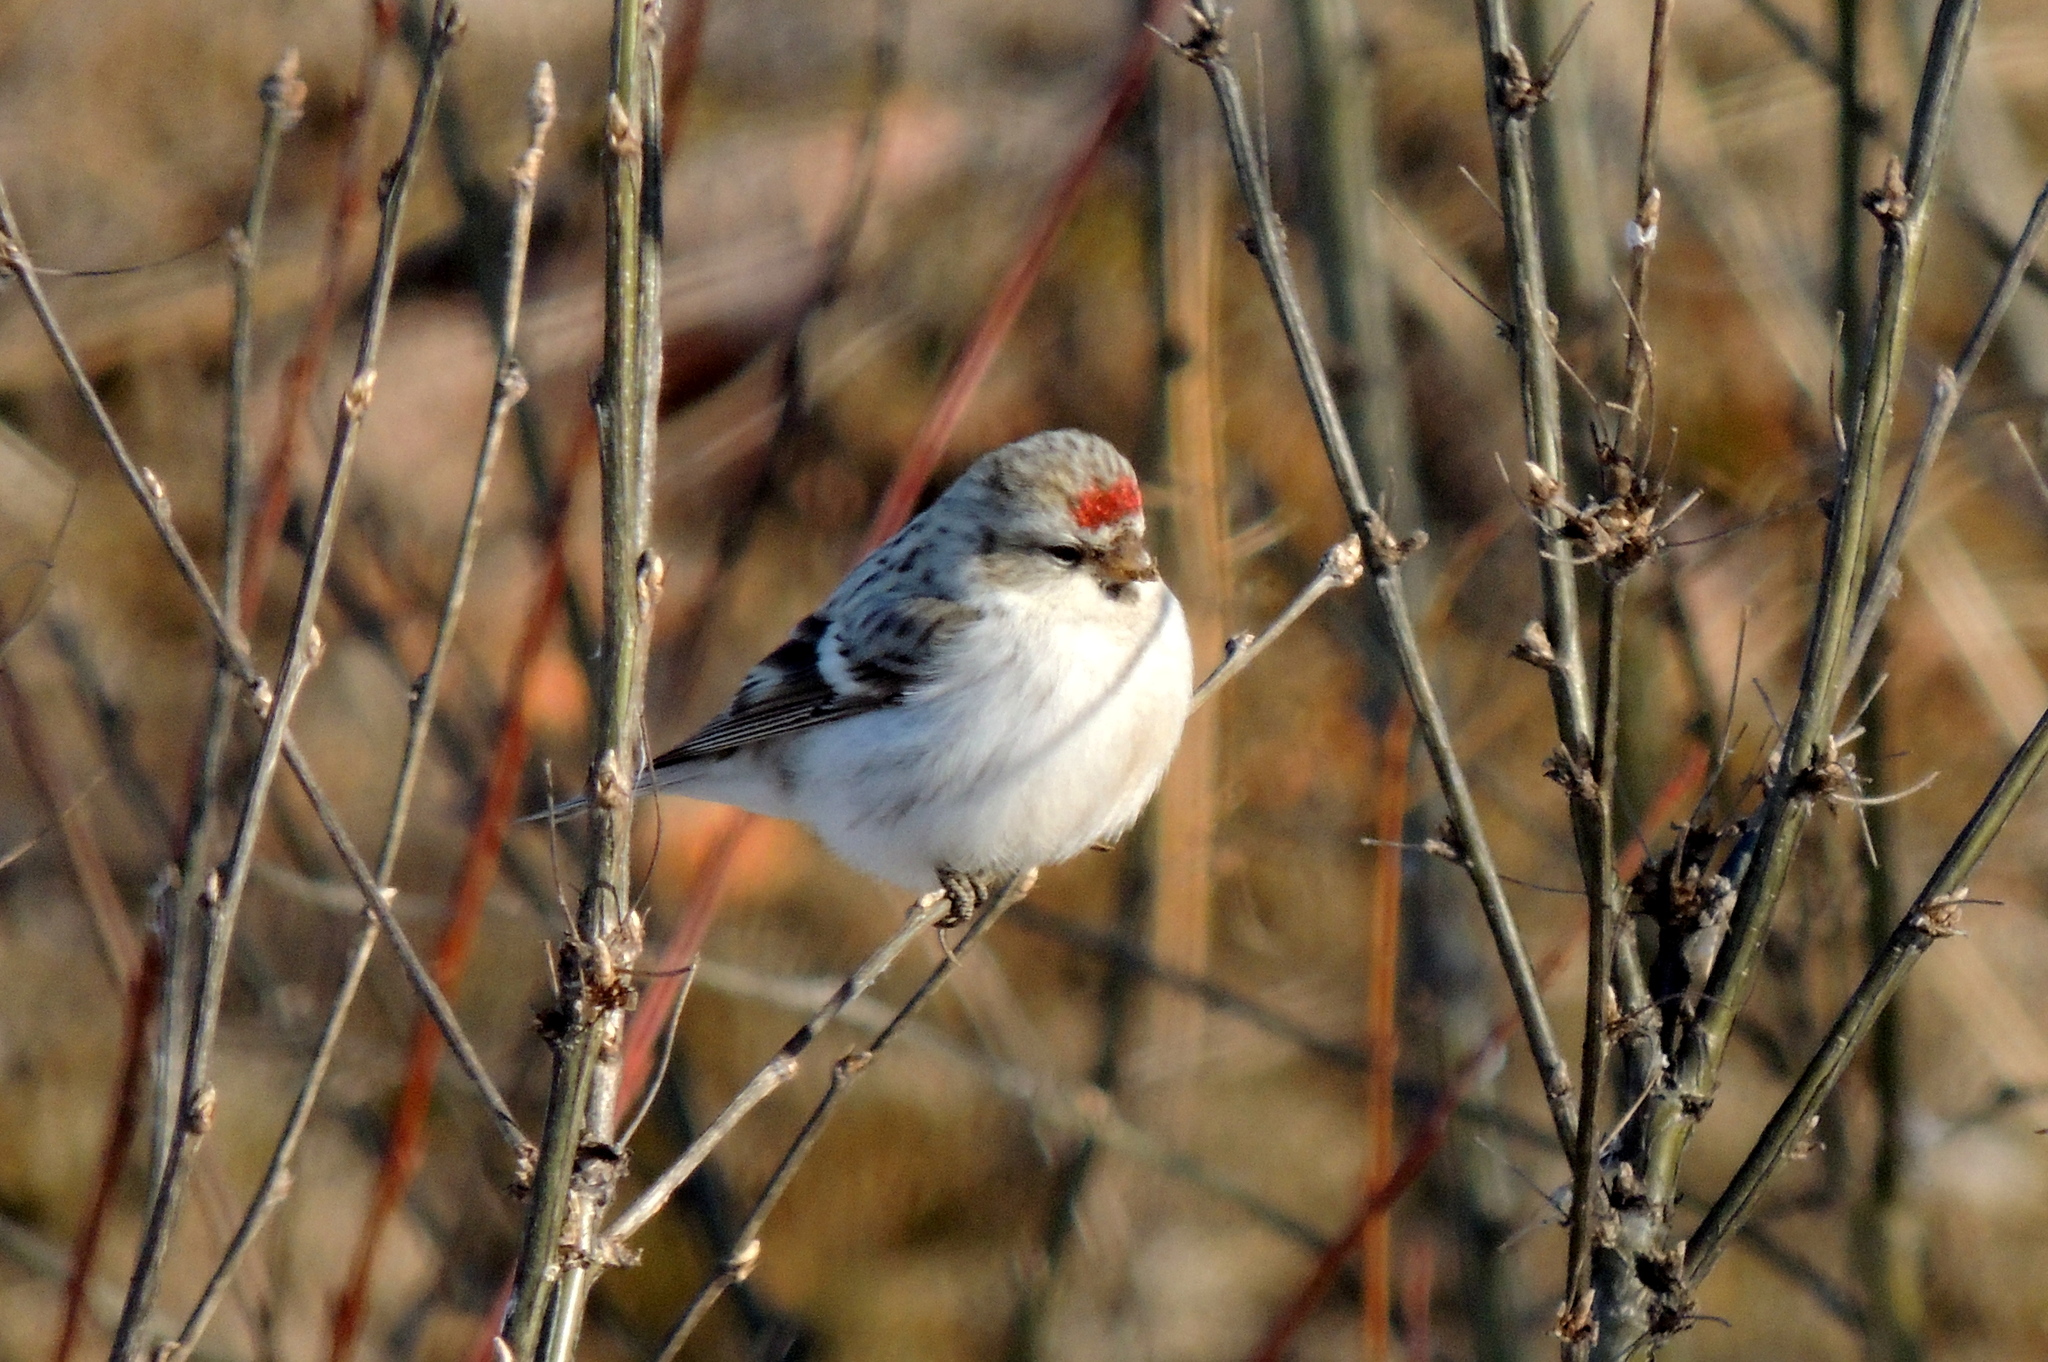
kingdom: Animalia
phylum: Chordata
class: Aves
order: Passeriformes
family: Fringillidae
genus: Acanthis
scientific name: Acanthis hornemanni
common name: Arctic redpoll
